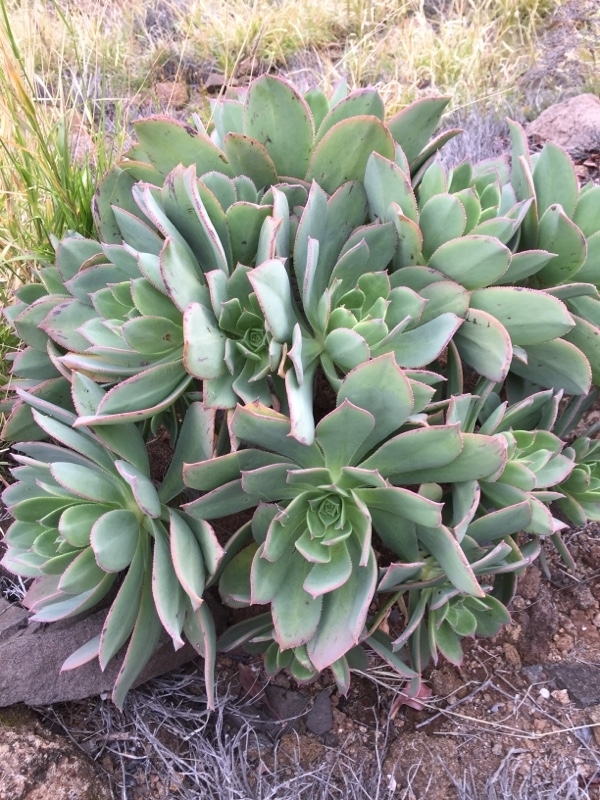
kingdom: Plantae
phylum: Tracheophyta
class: Magnoliopsida
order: Saxifragales
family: Crassulaceae
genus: Aeonium
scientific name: Aeonium percarneum
